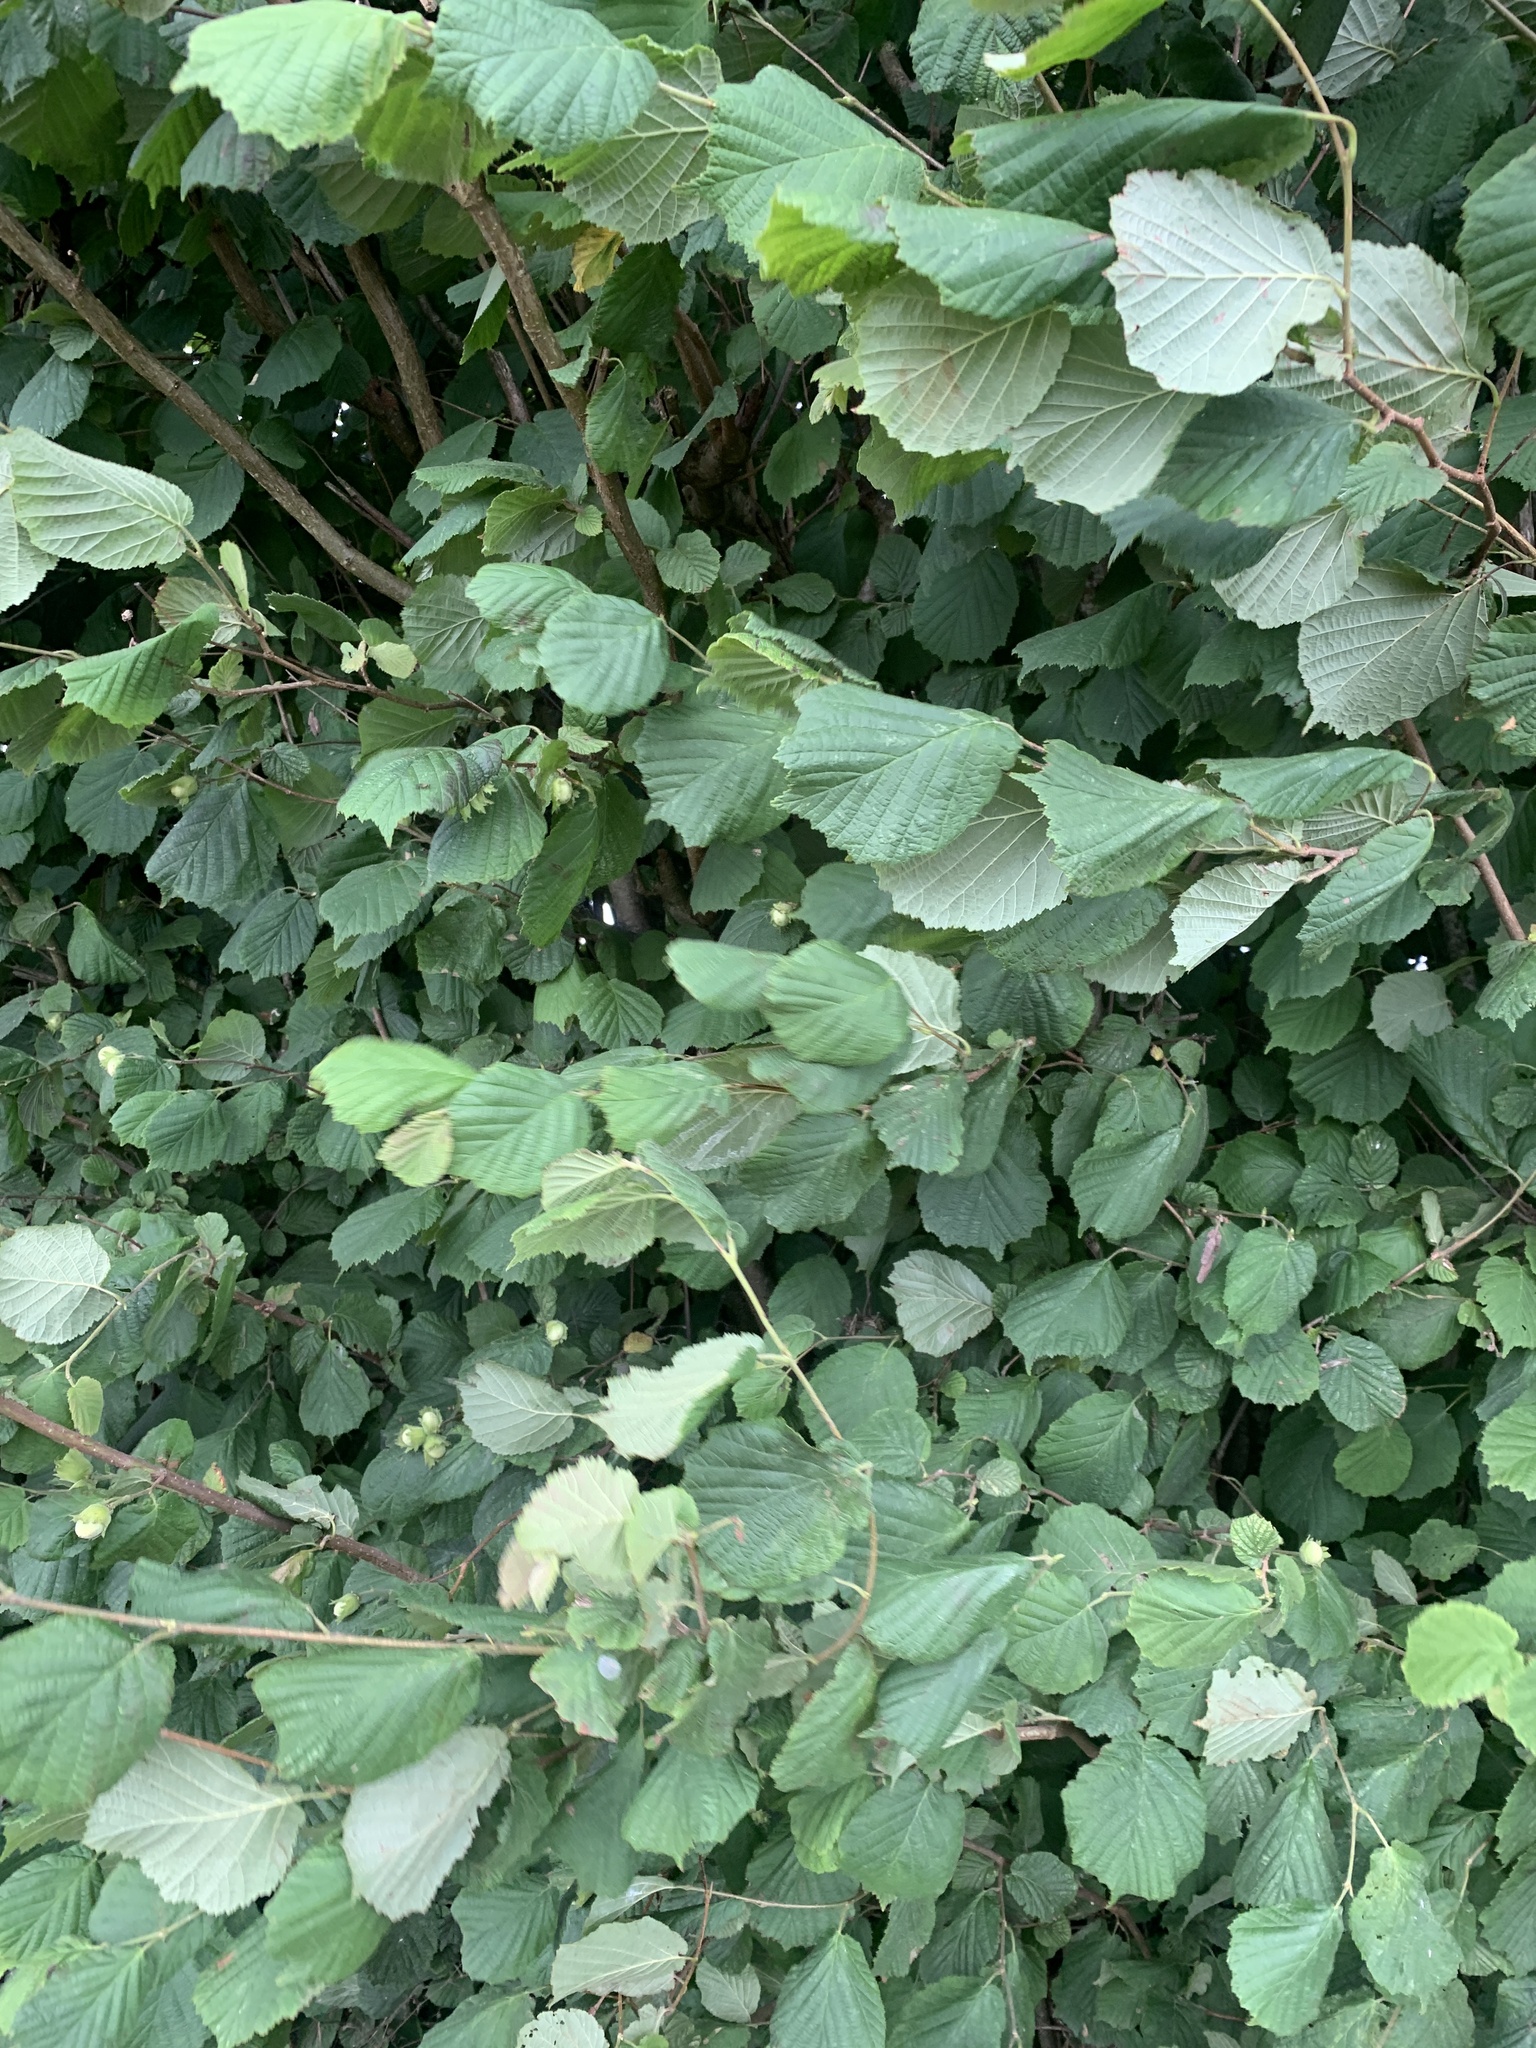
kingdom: Plantae
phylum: Tracheophyta
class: Magnoliopsida
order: Fagales
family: Betulaceae
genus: Corylus
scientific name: Corylus avellana
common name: European hazel
